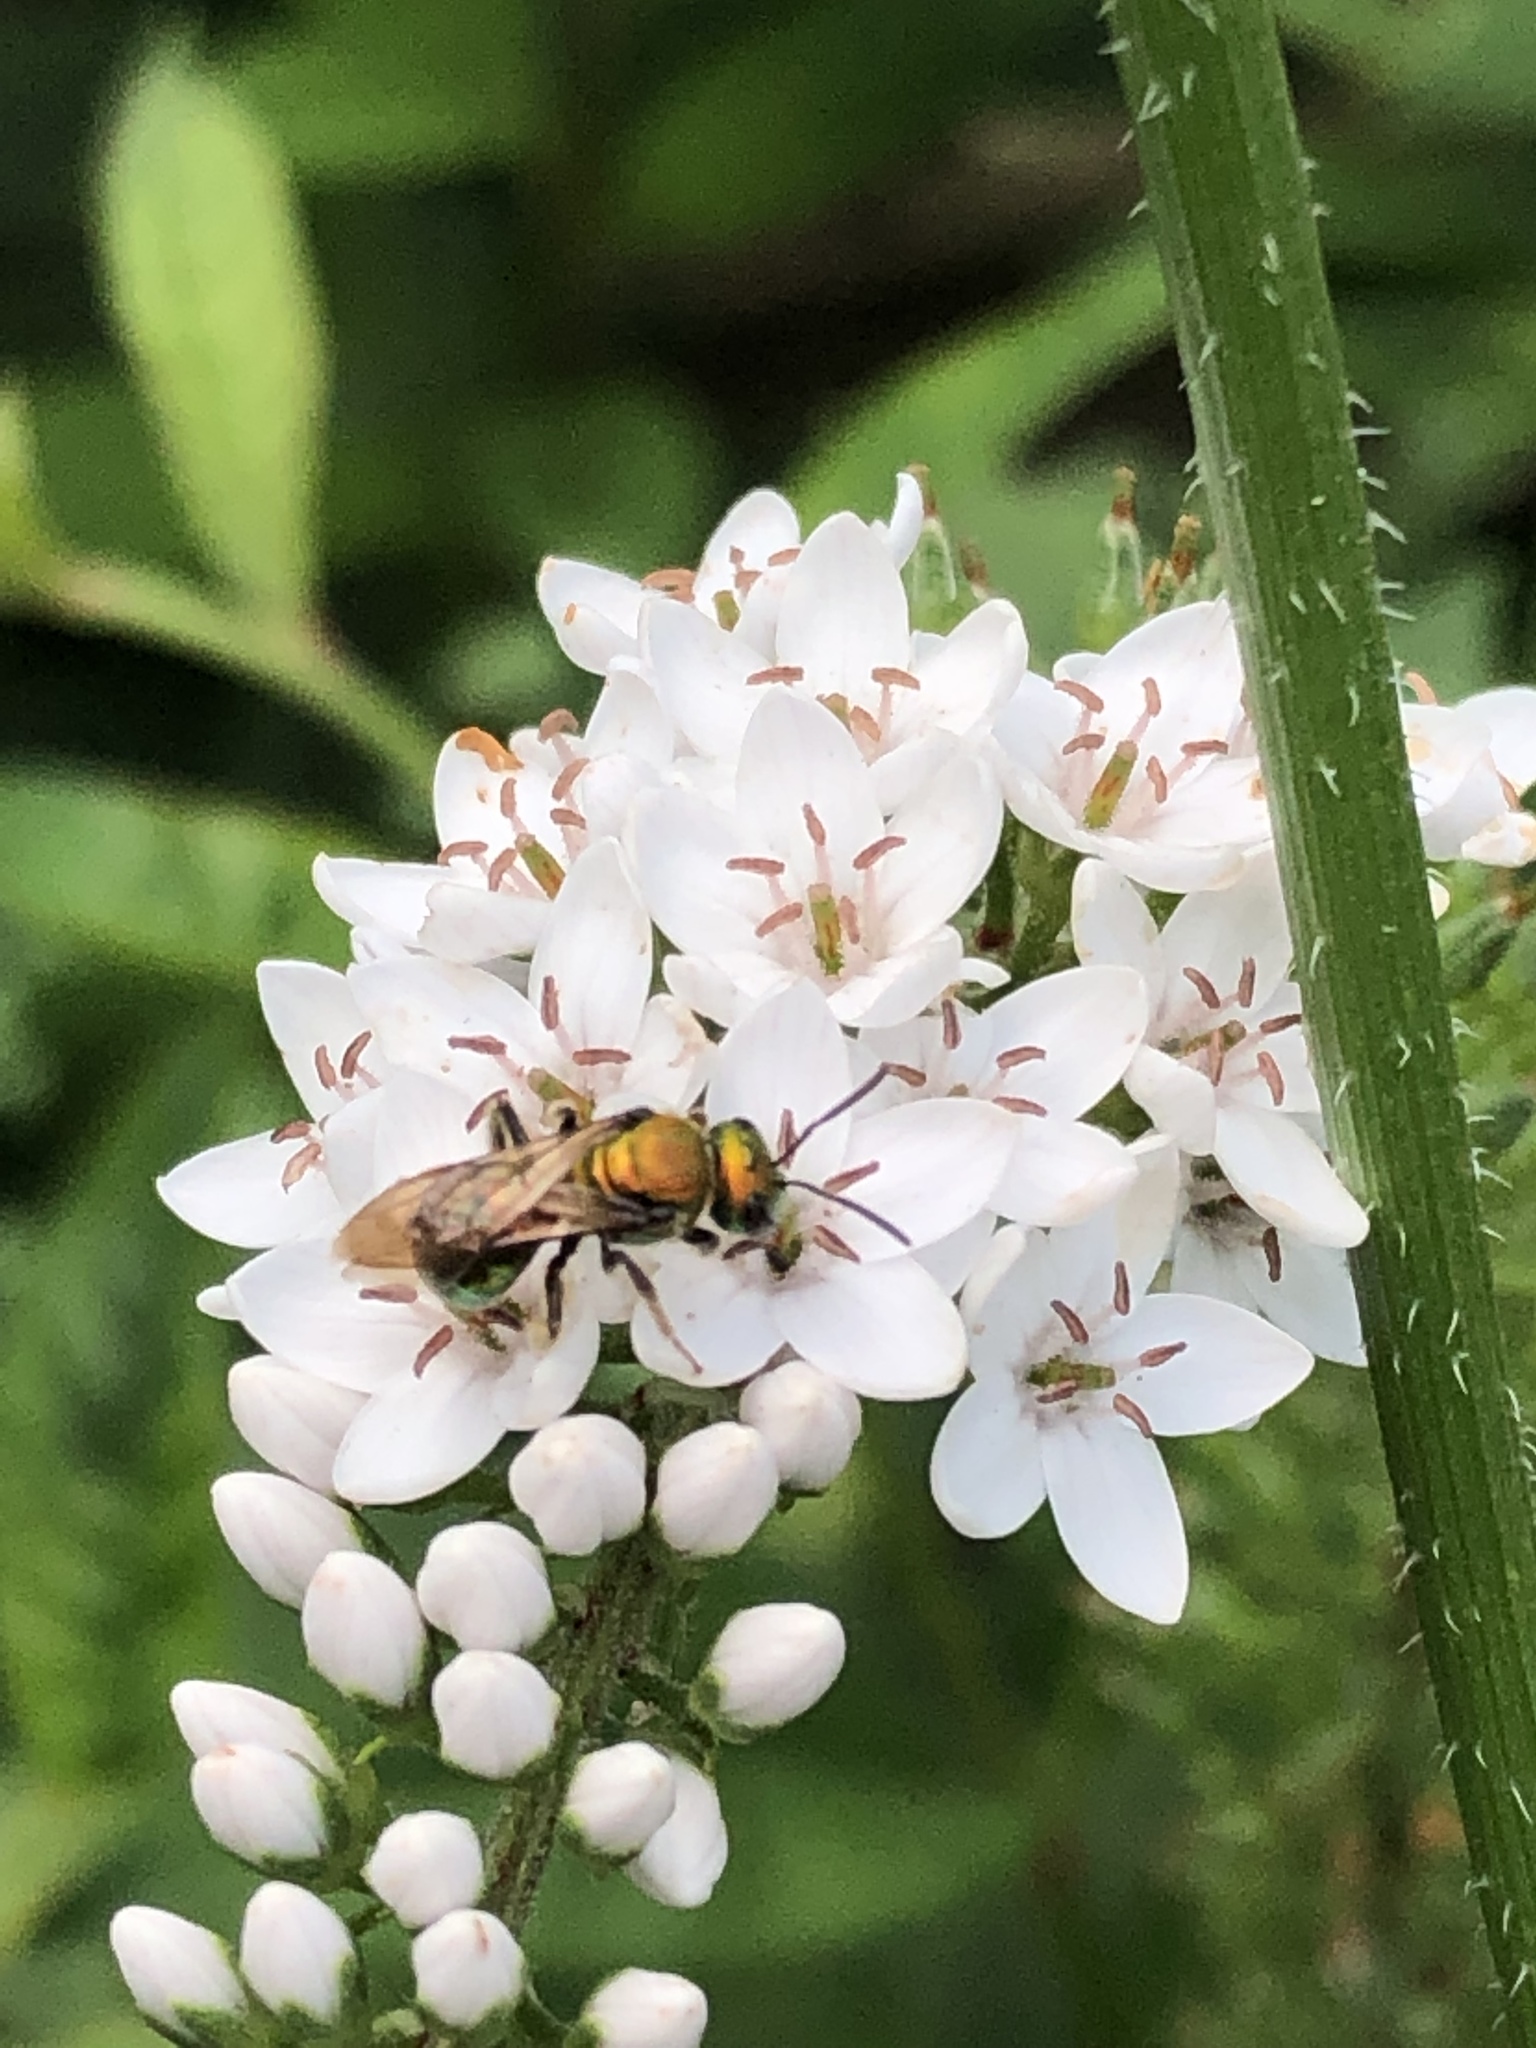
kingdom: Animalia
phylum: Arthropoda
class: Insecta
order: Hymenoptera
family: Halictidae
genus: Augochlora
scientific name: Augochlora pura
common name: Pure green sweat bee
